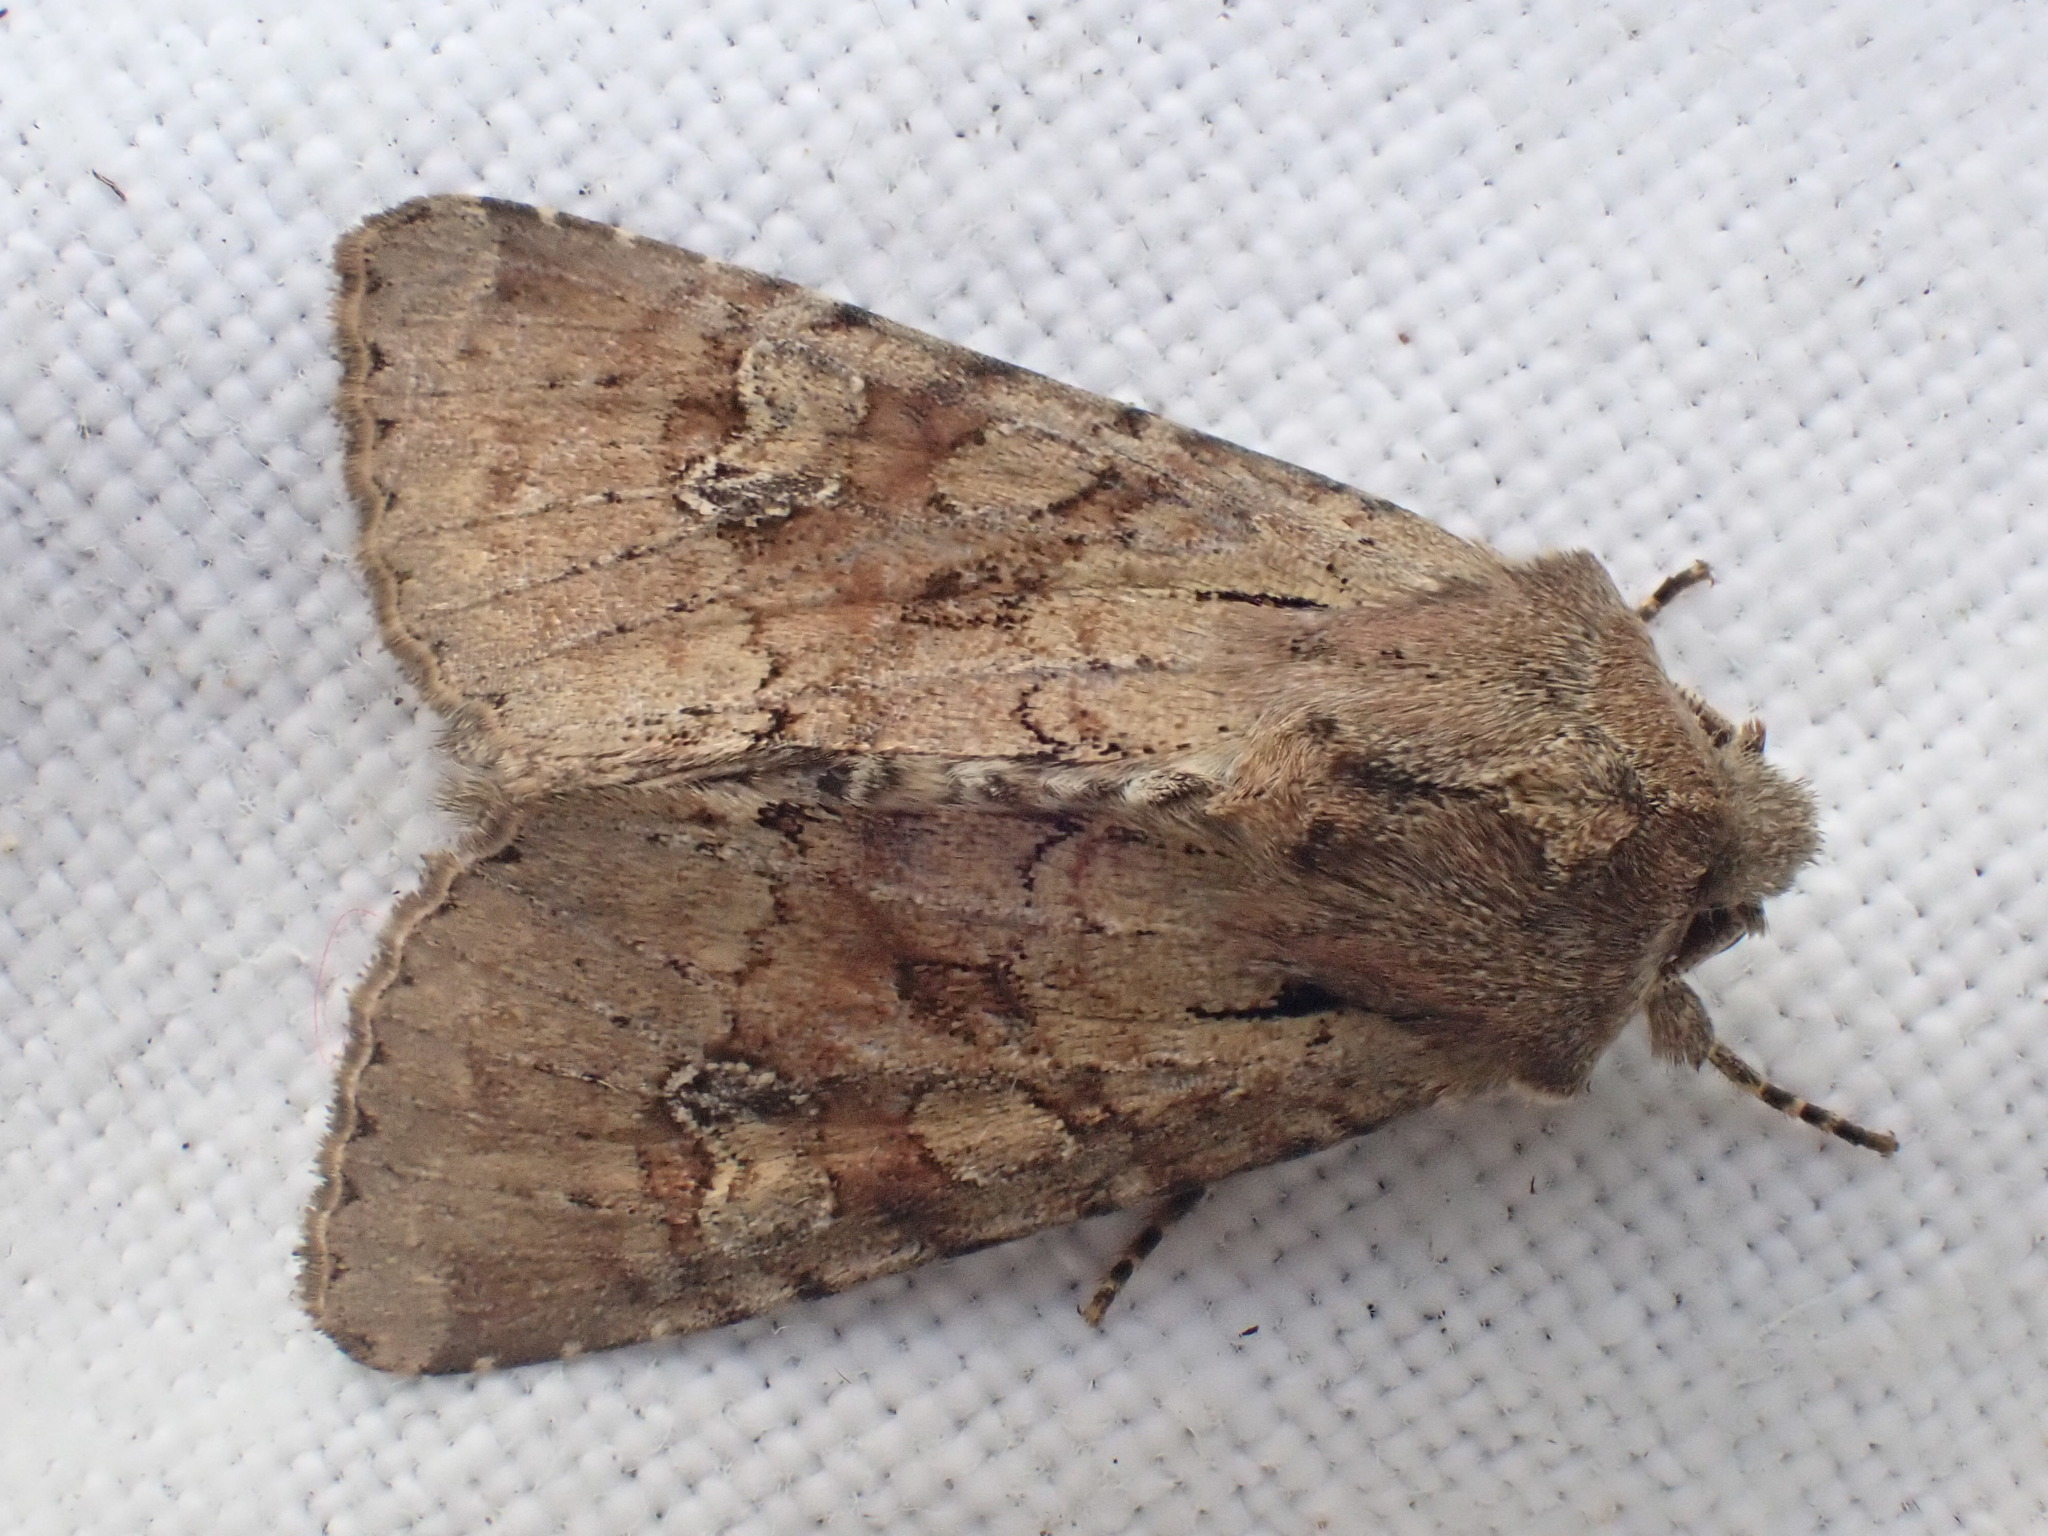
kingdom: Animalia
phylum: Arthropoda
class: Insecta
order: Lepidoptera
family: Noctuidae
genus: Apamea
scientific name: Apamea sordens
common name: Rustic shoulder-knot
